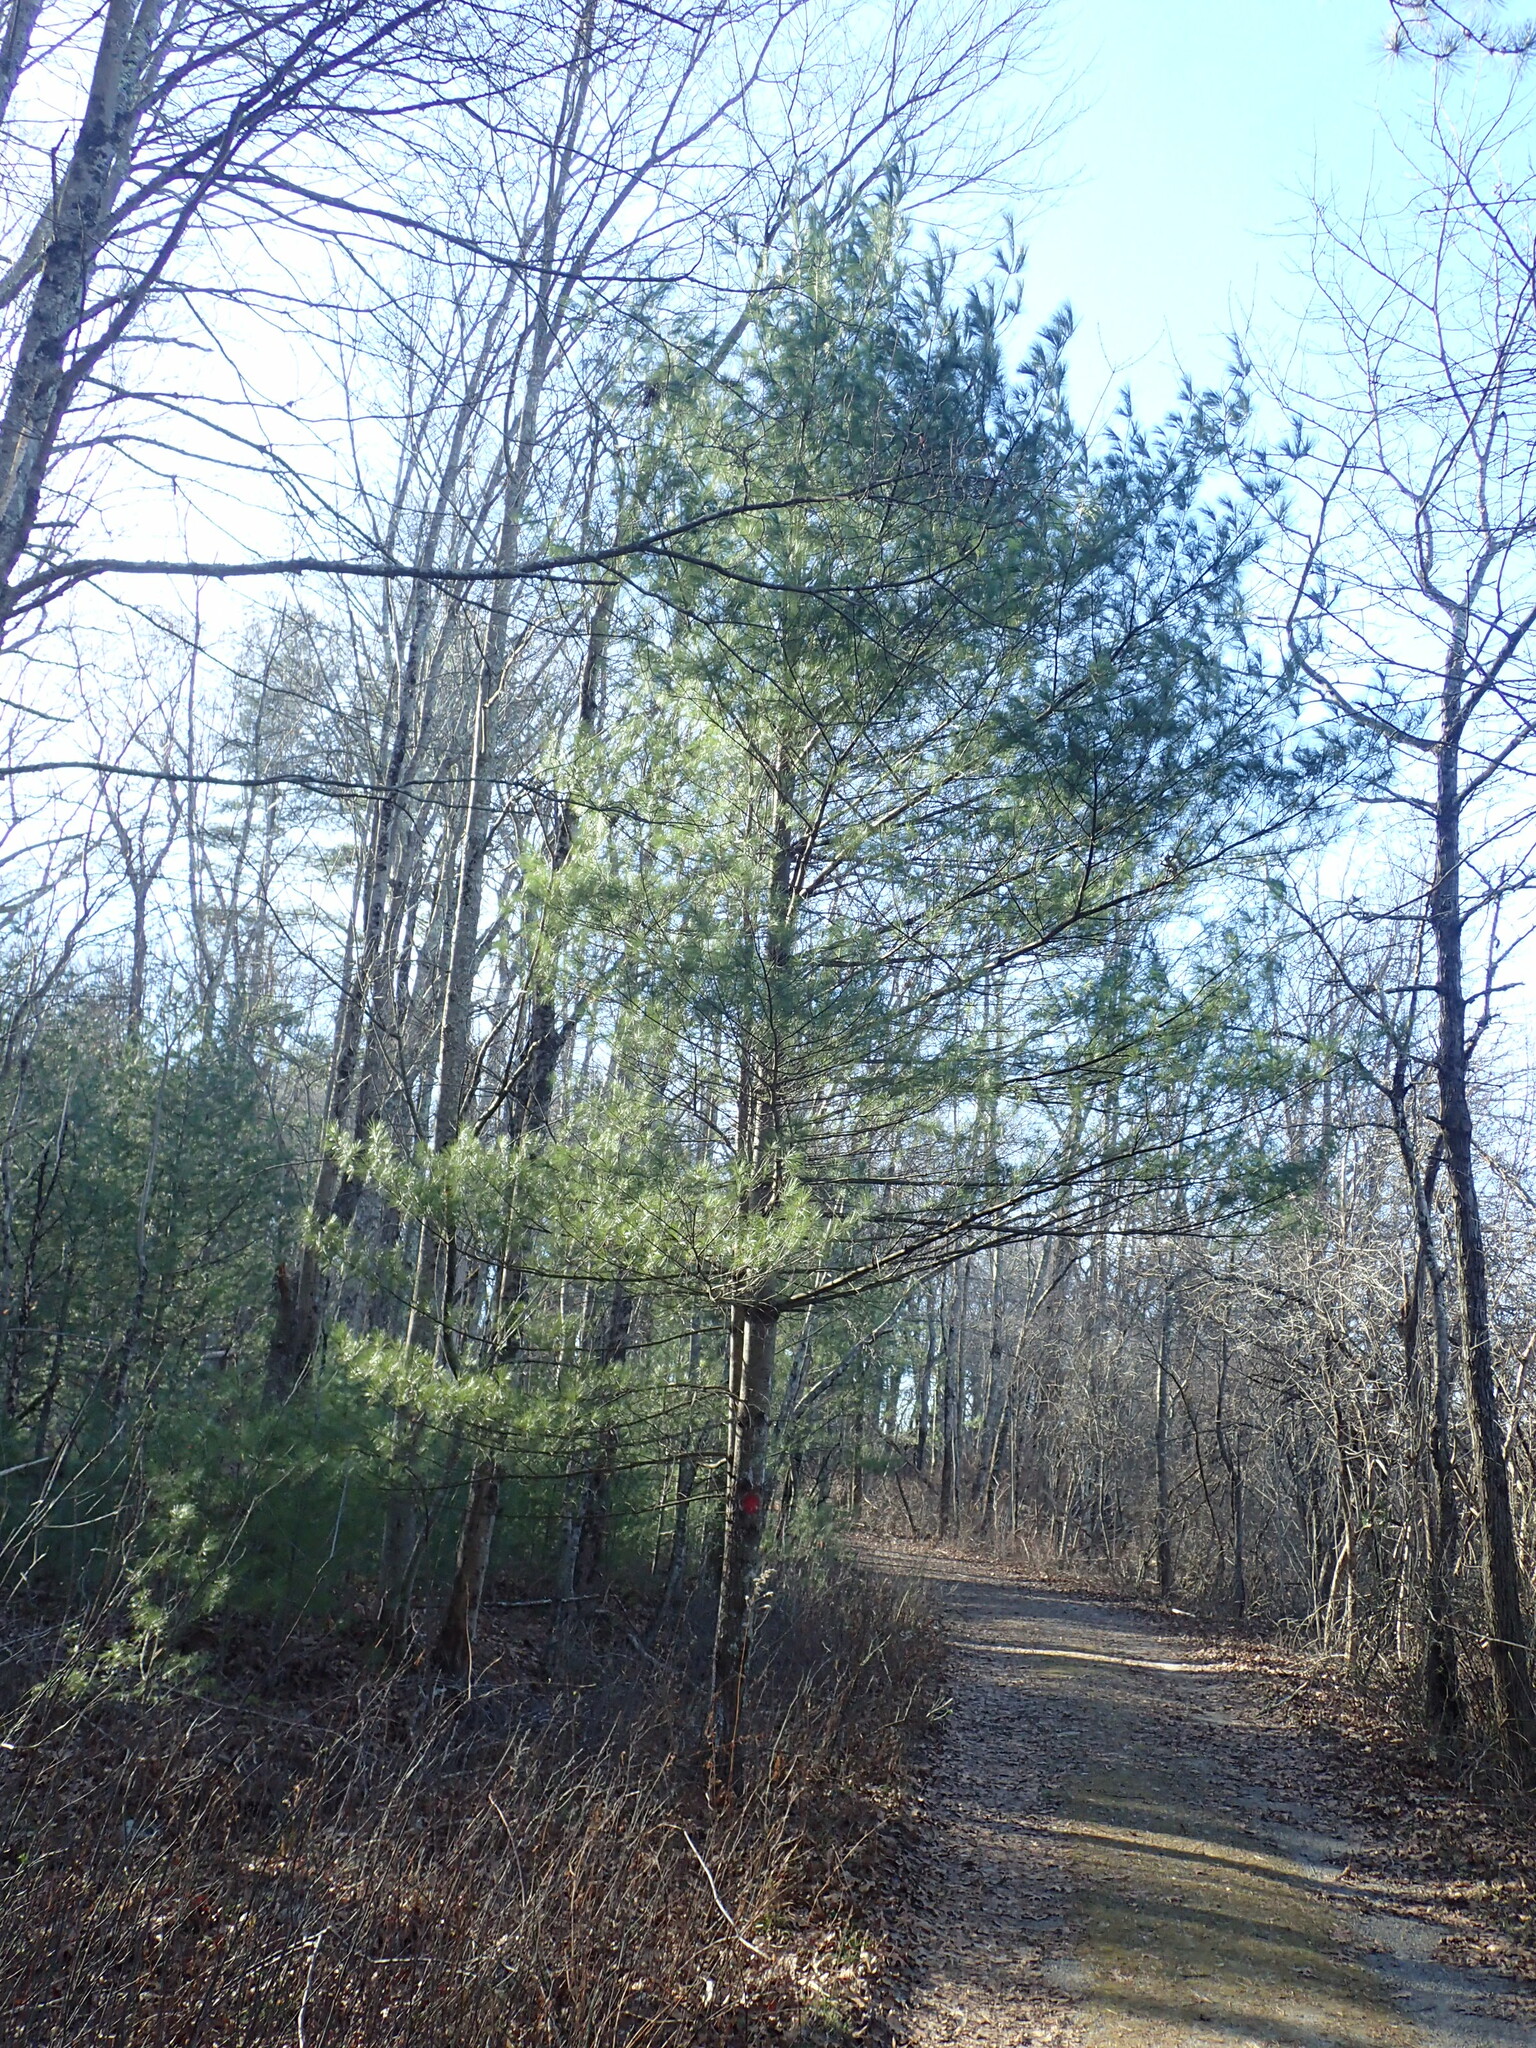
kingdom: Plantae
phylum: Tracheophyta
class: Pinopsida
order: Pinales
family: Pinaceae
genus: Pinus
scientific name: Pinus strobus
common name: Weymouth pine
